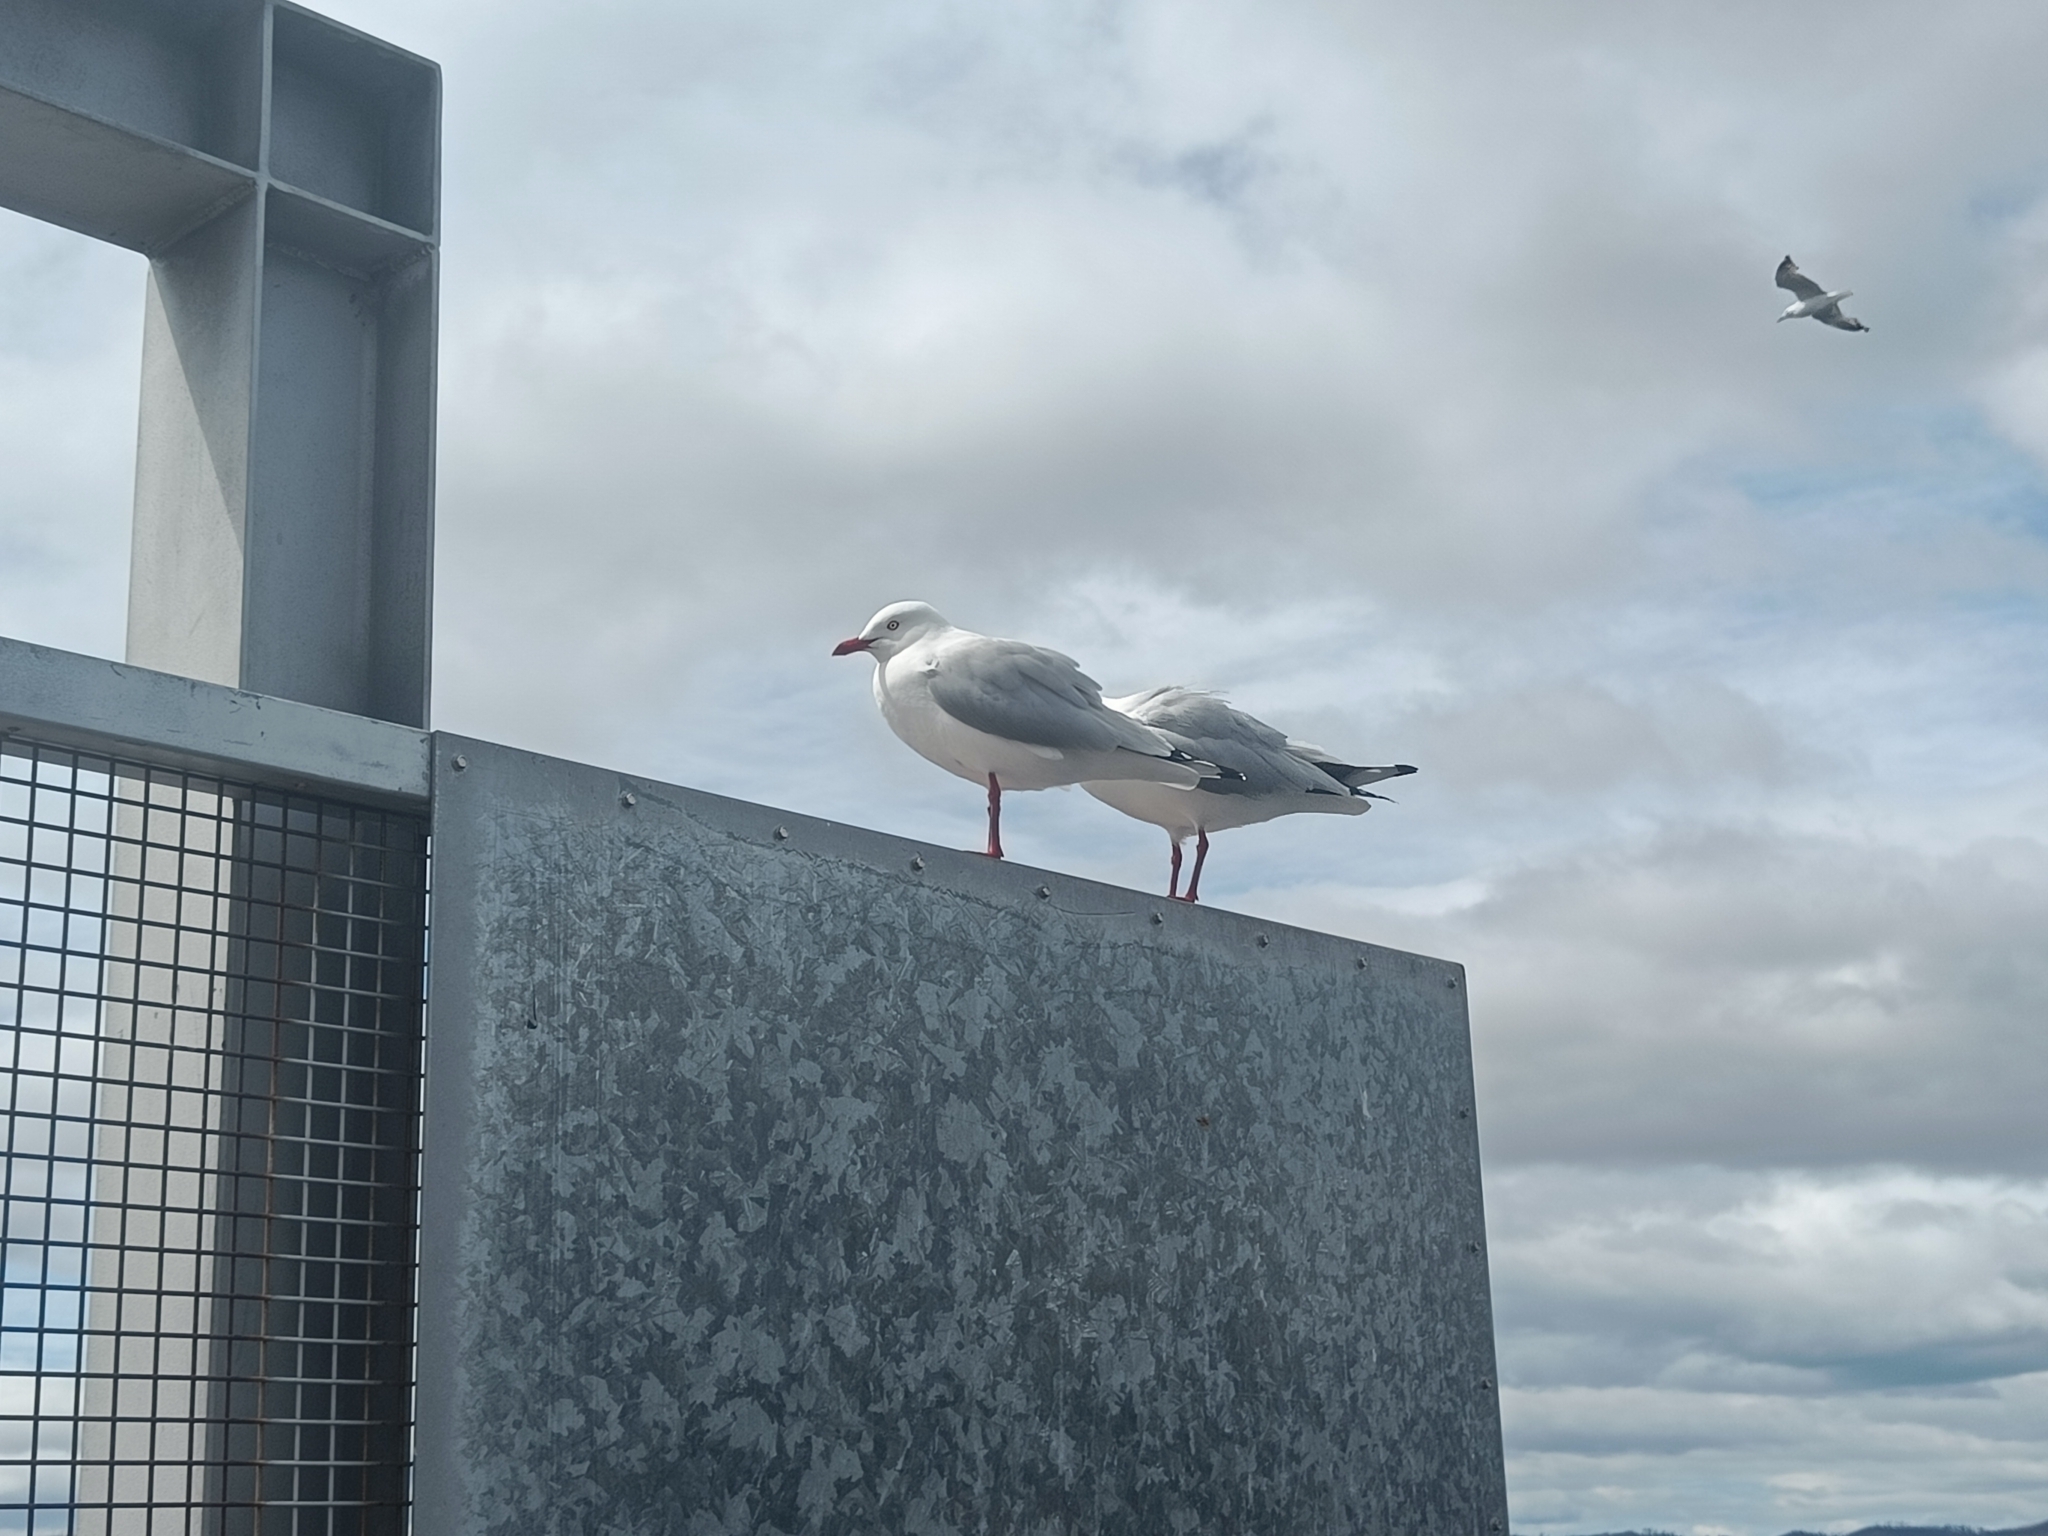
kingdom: Animalia
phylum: Chordata
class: Aves
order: Charadriiformes
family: Laridae
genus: Chroicocephalus
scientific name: Chroicocephalus novaehollandiae
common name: Silver gull
